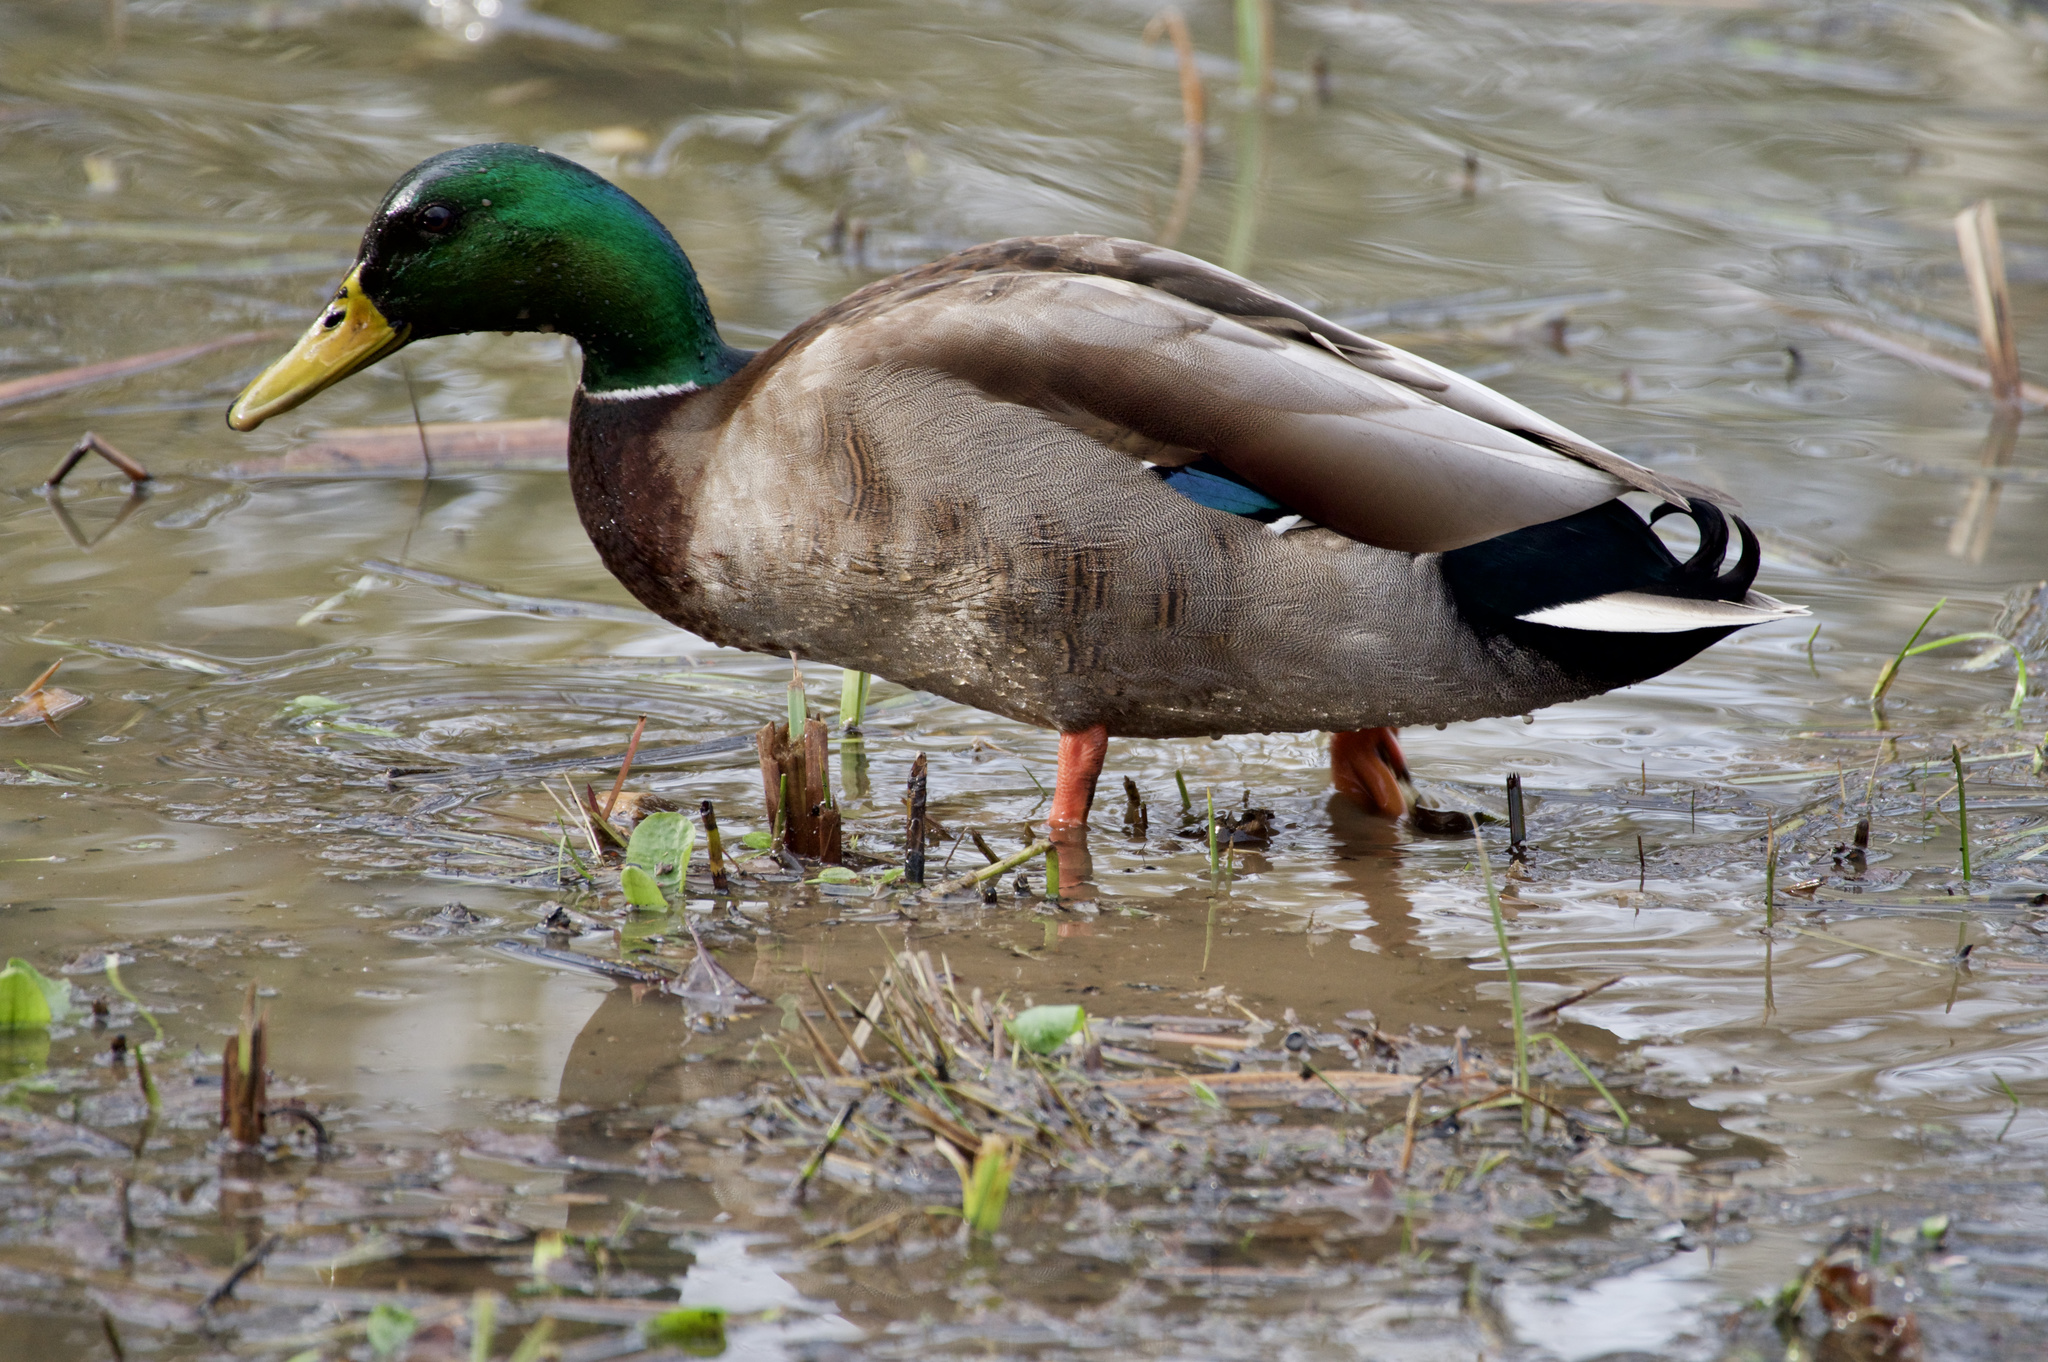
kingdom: Animalia
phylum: Chordata
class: Aves
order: Anseriformes
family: Anatidae
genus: Anas
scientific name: Anas platyrhynchos
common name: Mallard
